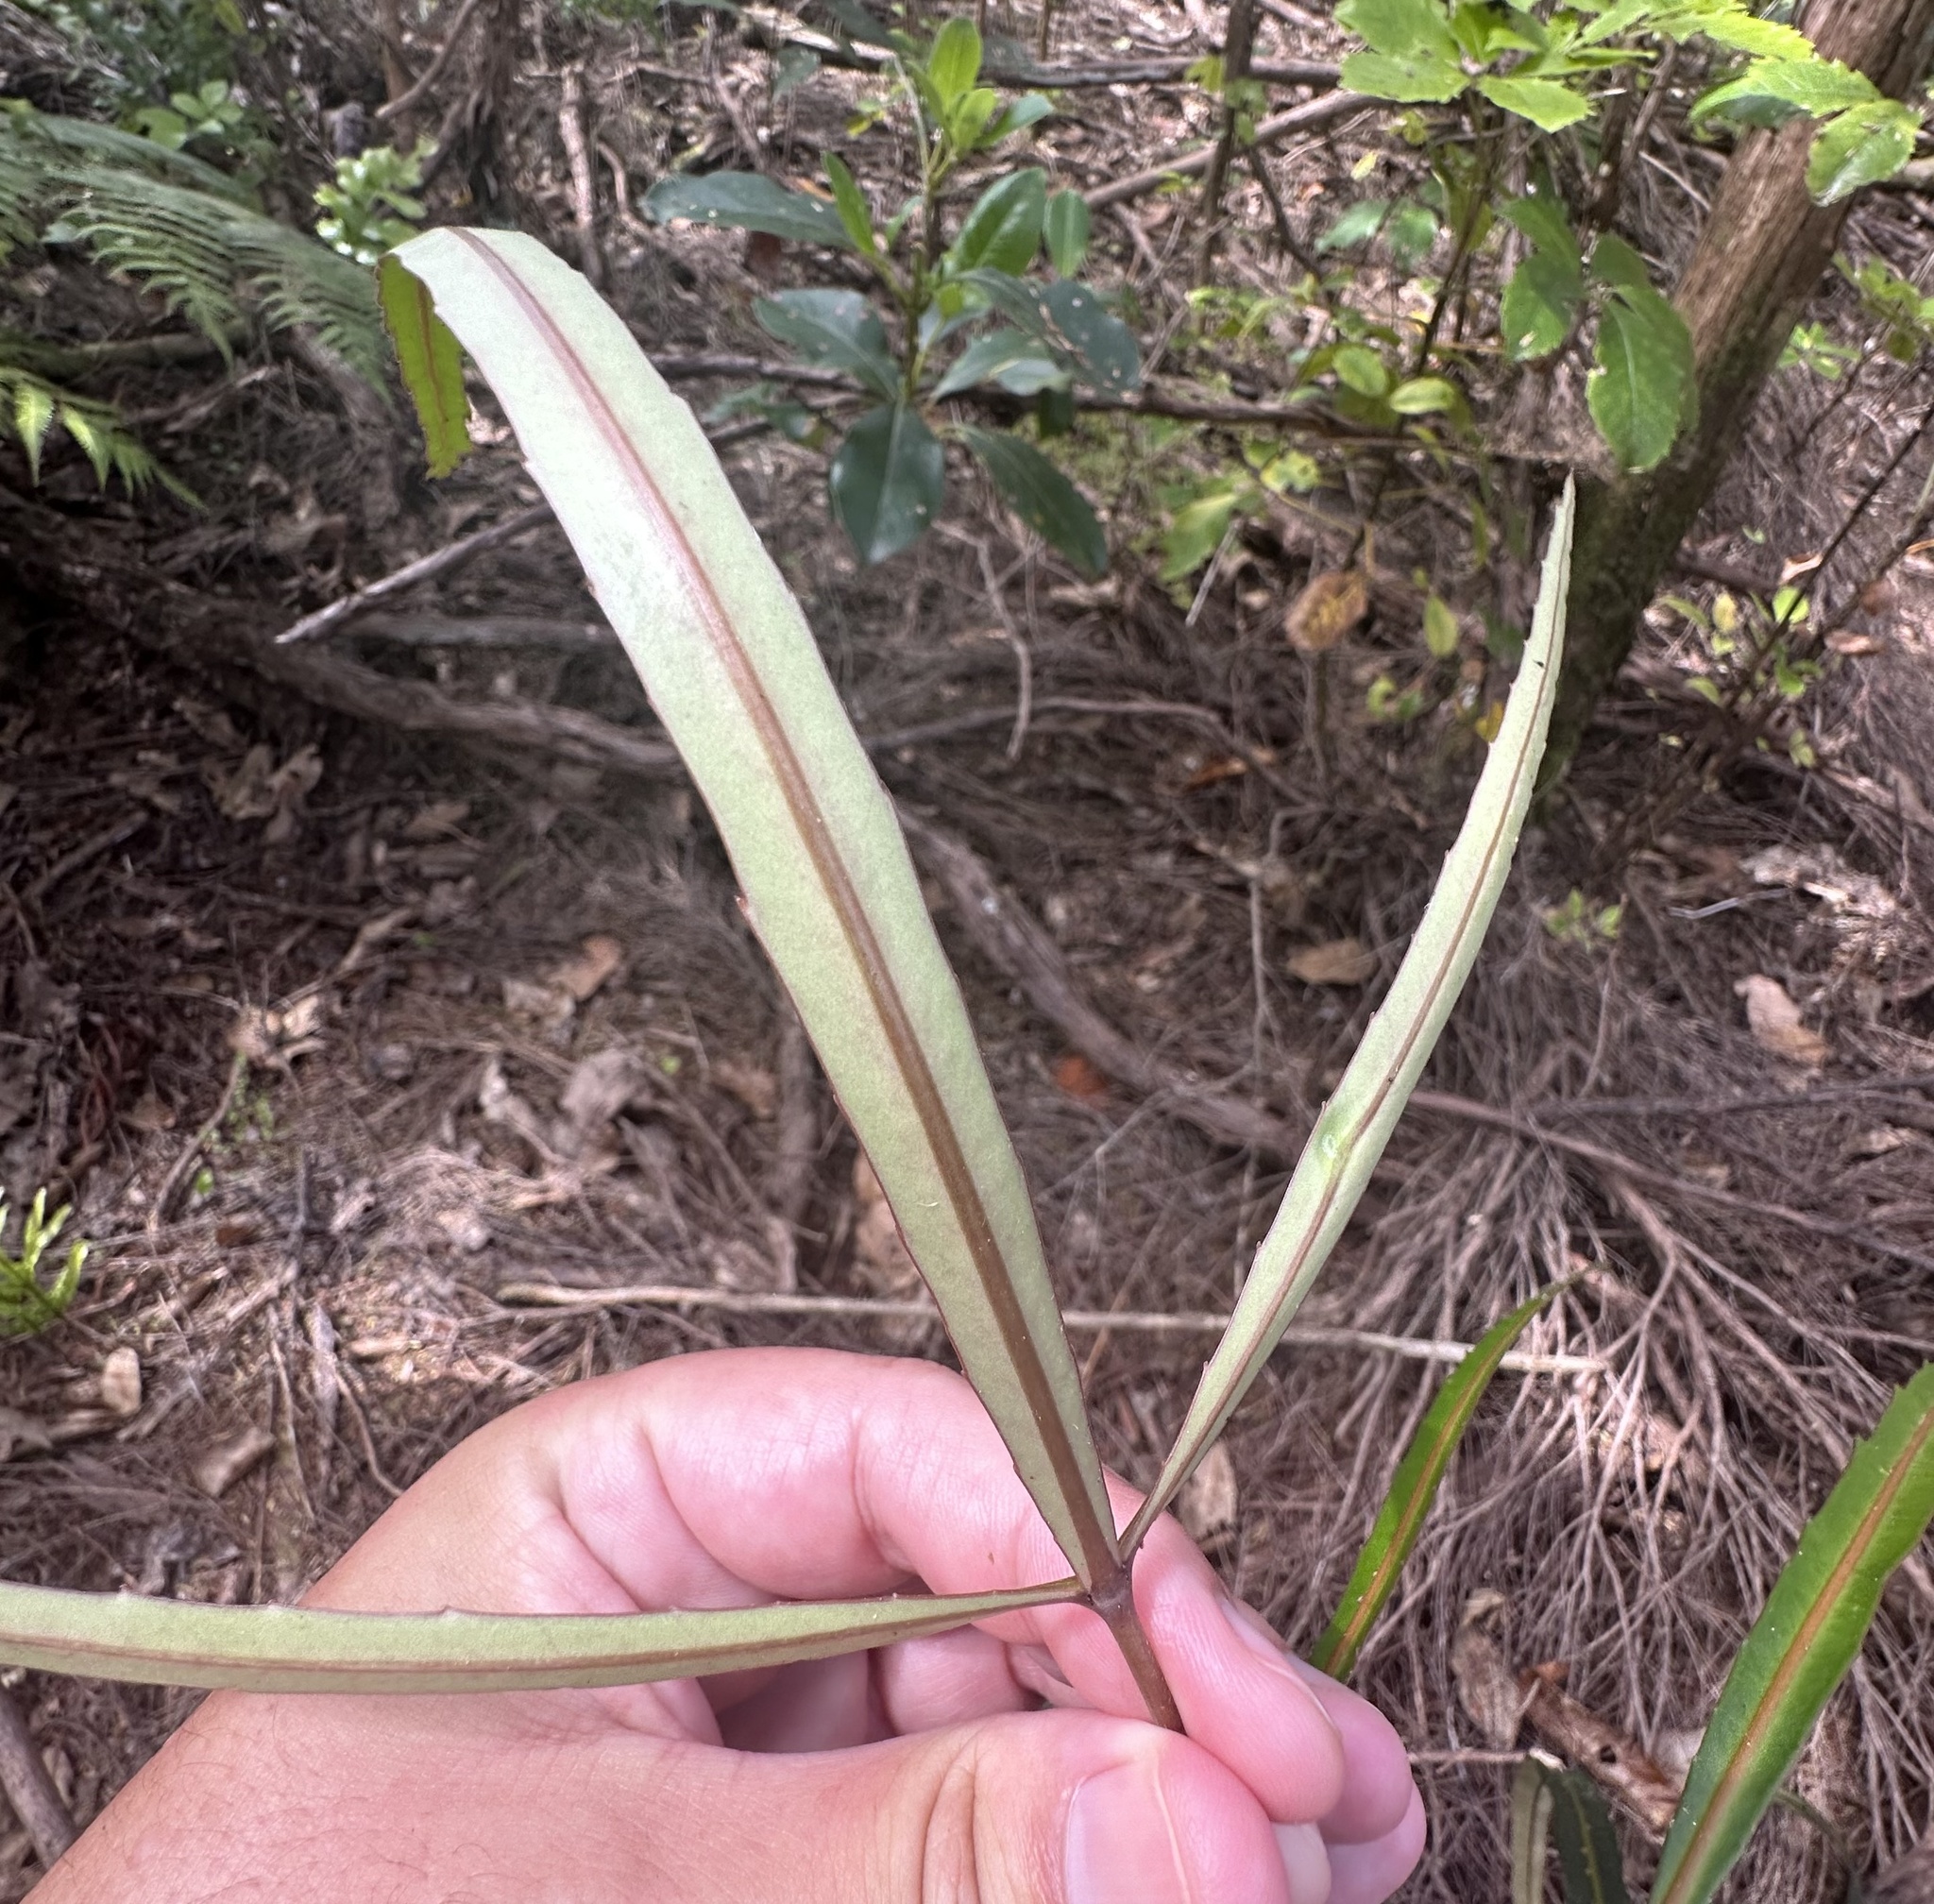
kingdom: Plantae
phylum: Tracheophyta
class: Magnoliopsida
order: Apiales
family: Araliaceae
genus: Pseudopanax
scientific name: Pseudopanax
